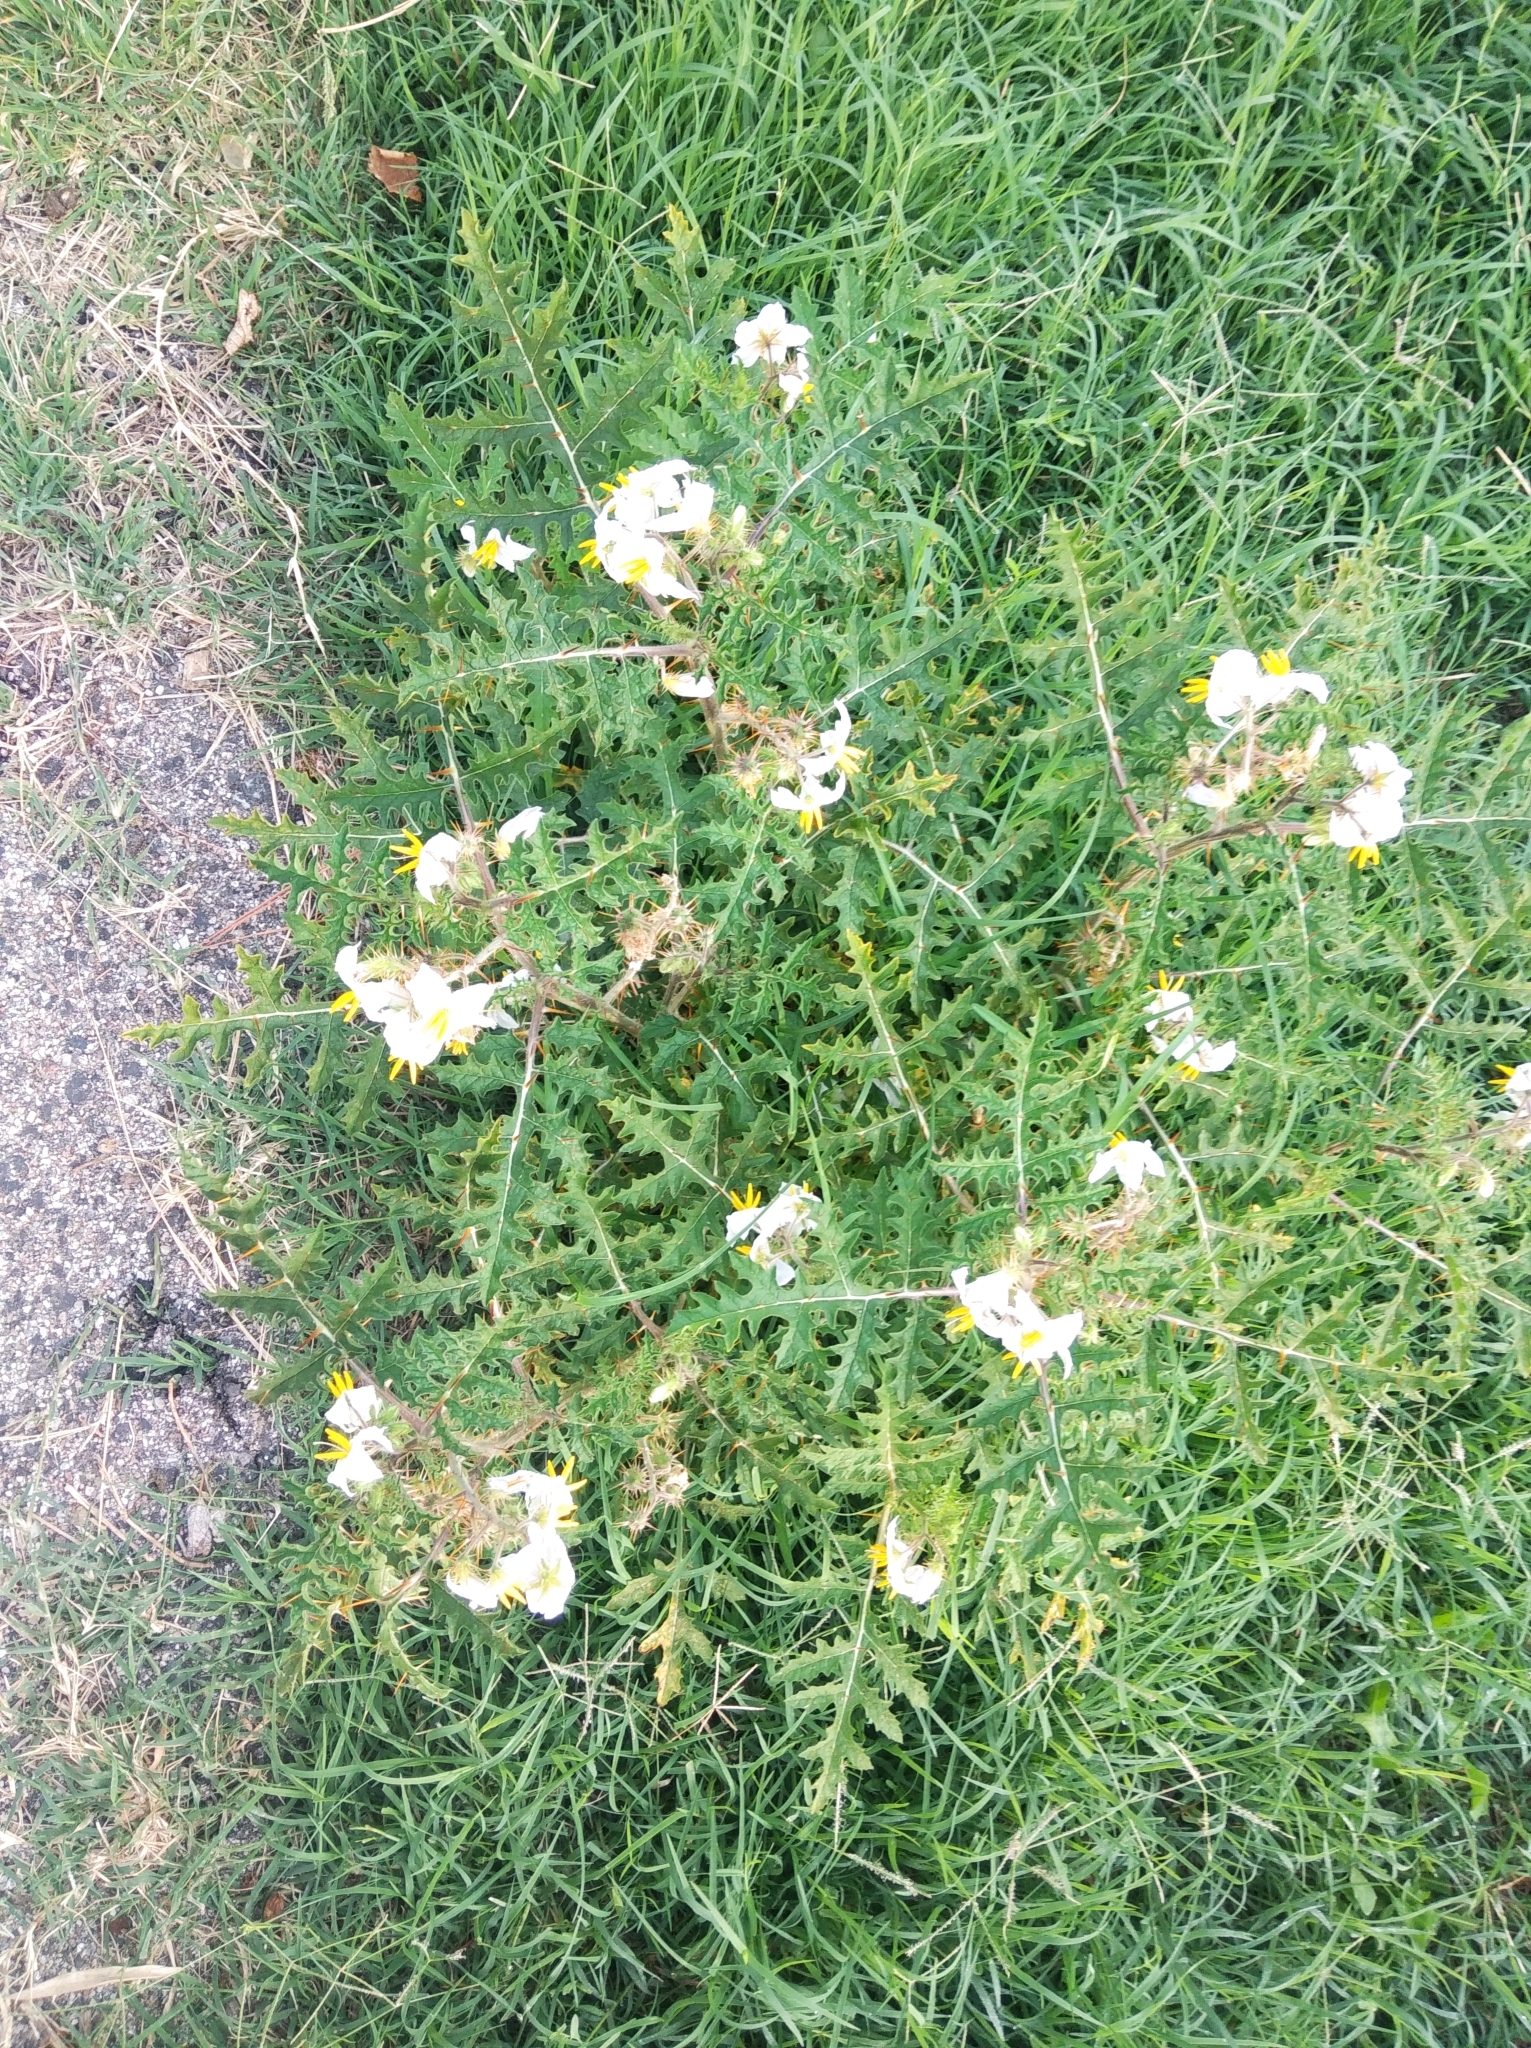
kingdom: Plantae
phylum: Tracheophyta
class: Magnoliopsida
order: Solanales
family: Solanaceae
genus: Solanum
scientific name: Solanum sisymbriifolium
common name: Red buffalo-bur
